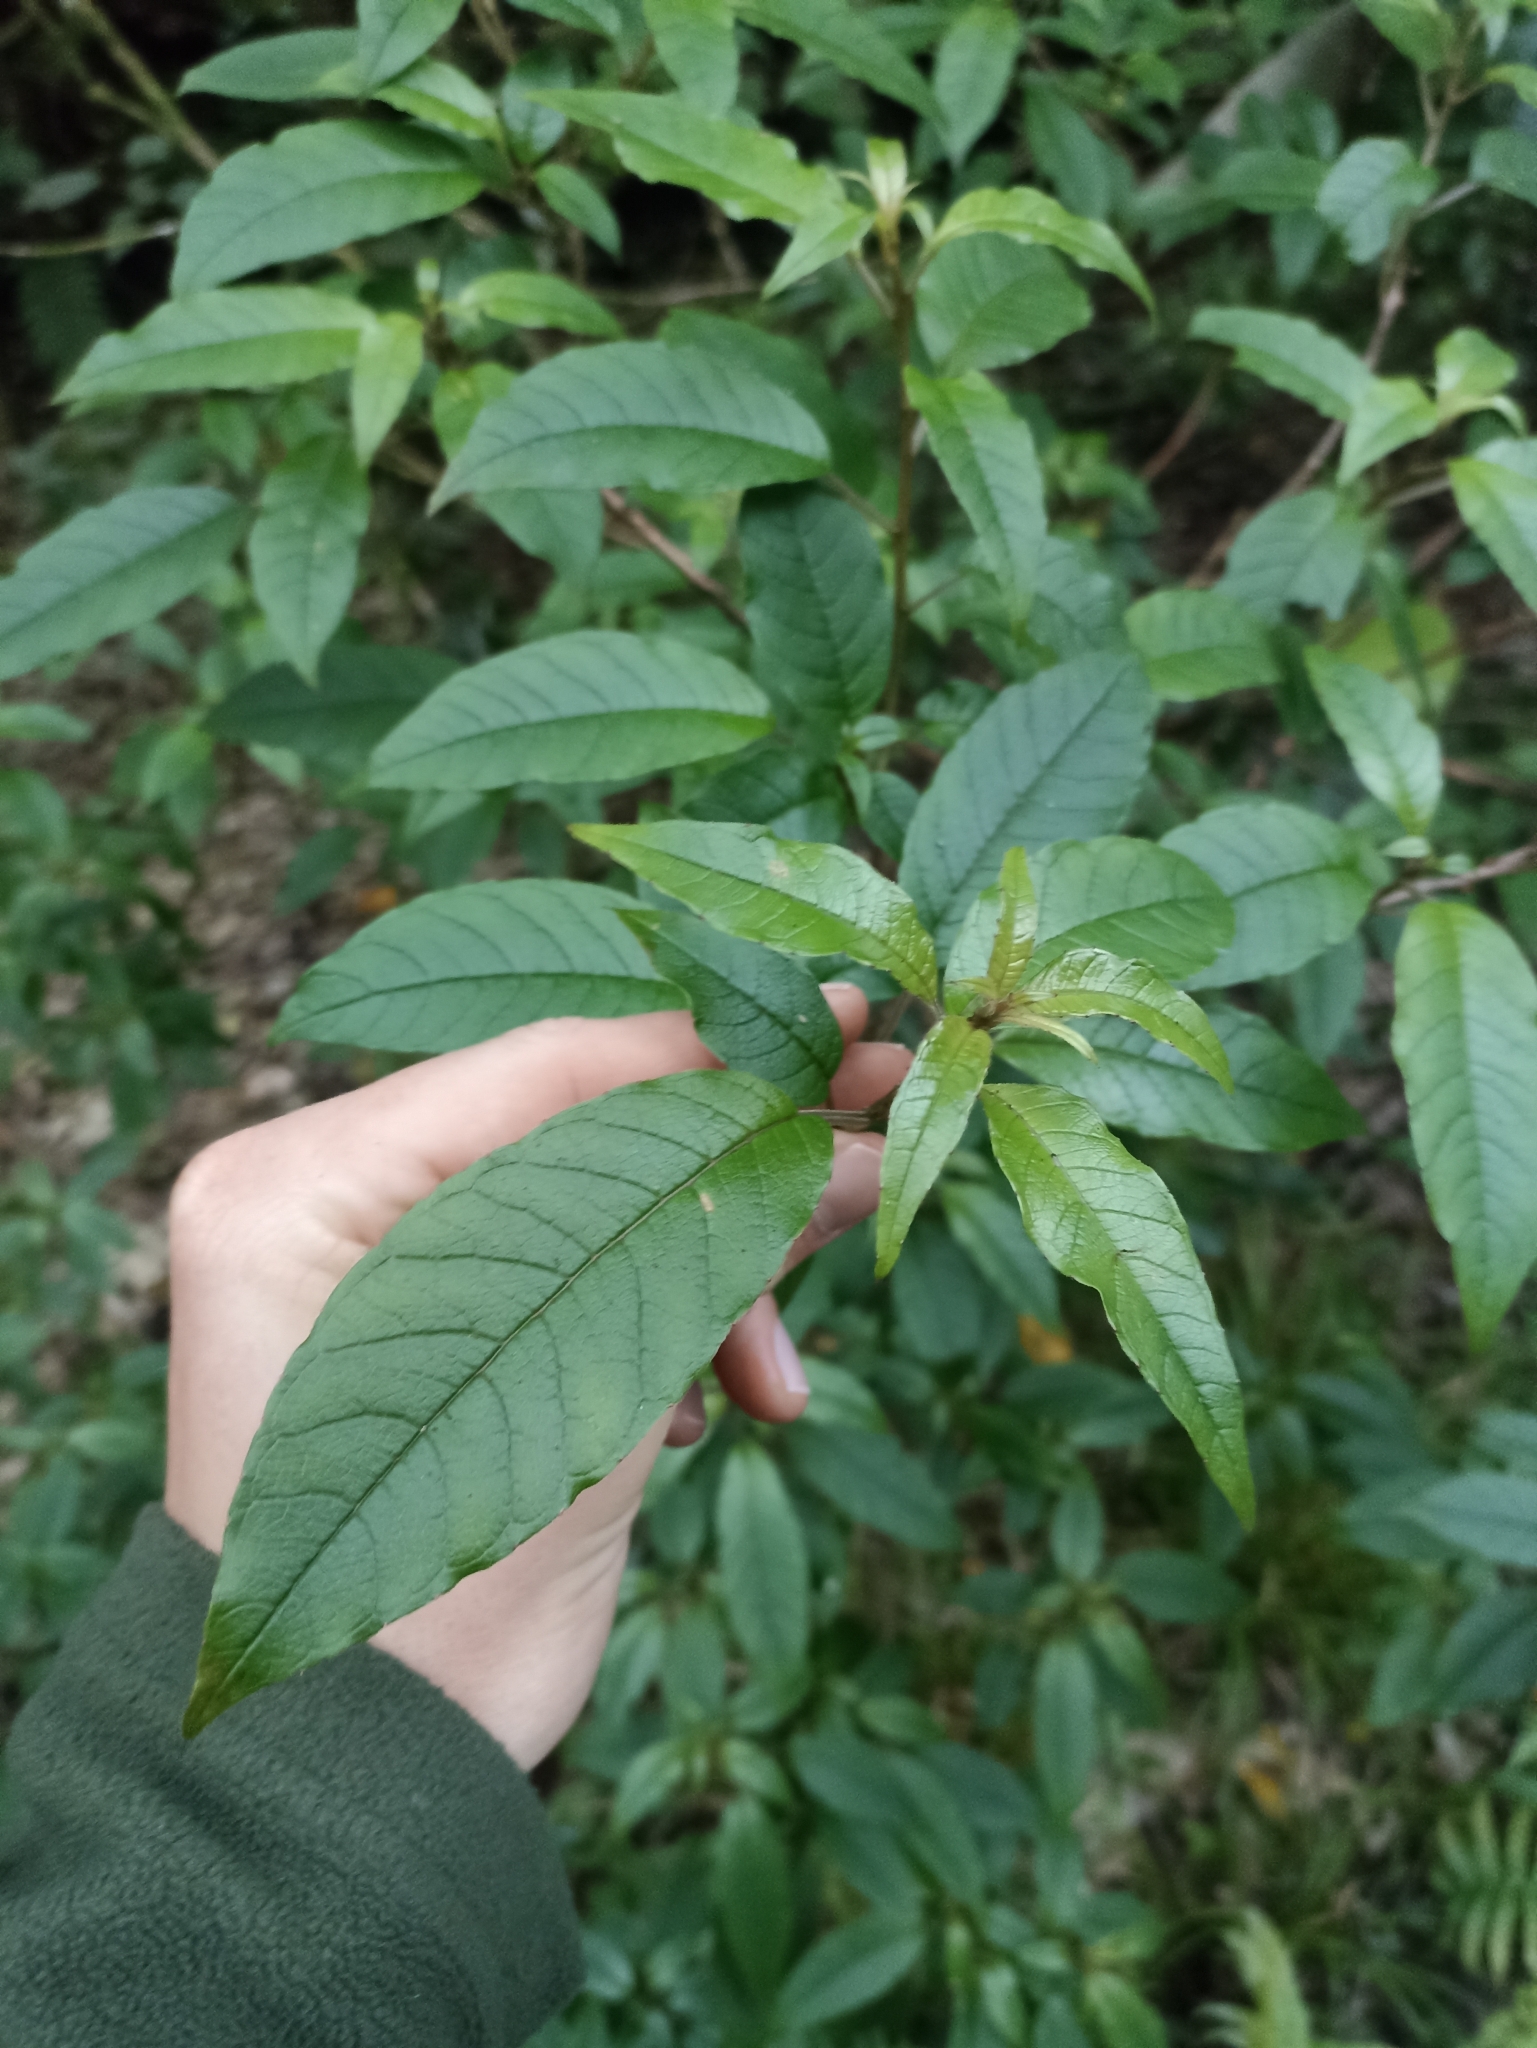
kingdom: Plantae
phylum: Tracheophyta
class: Magnoliopsida
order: Myrtales
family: Onagraceae
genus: Fuchsia
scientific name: Fuchsia excorticata
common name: Tree fuchsia
